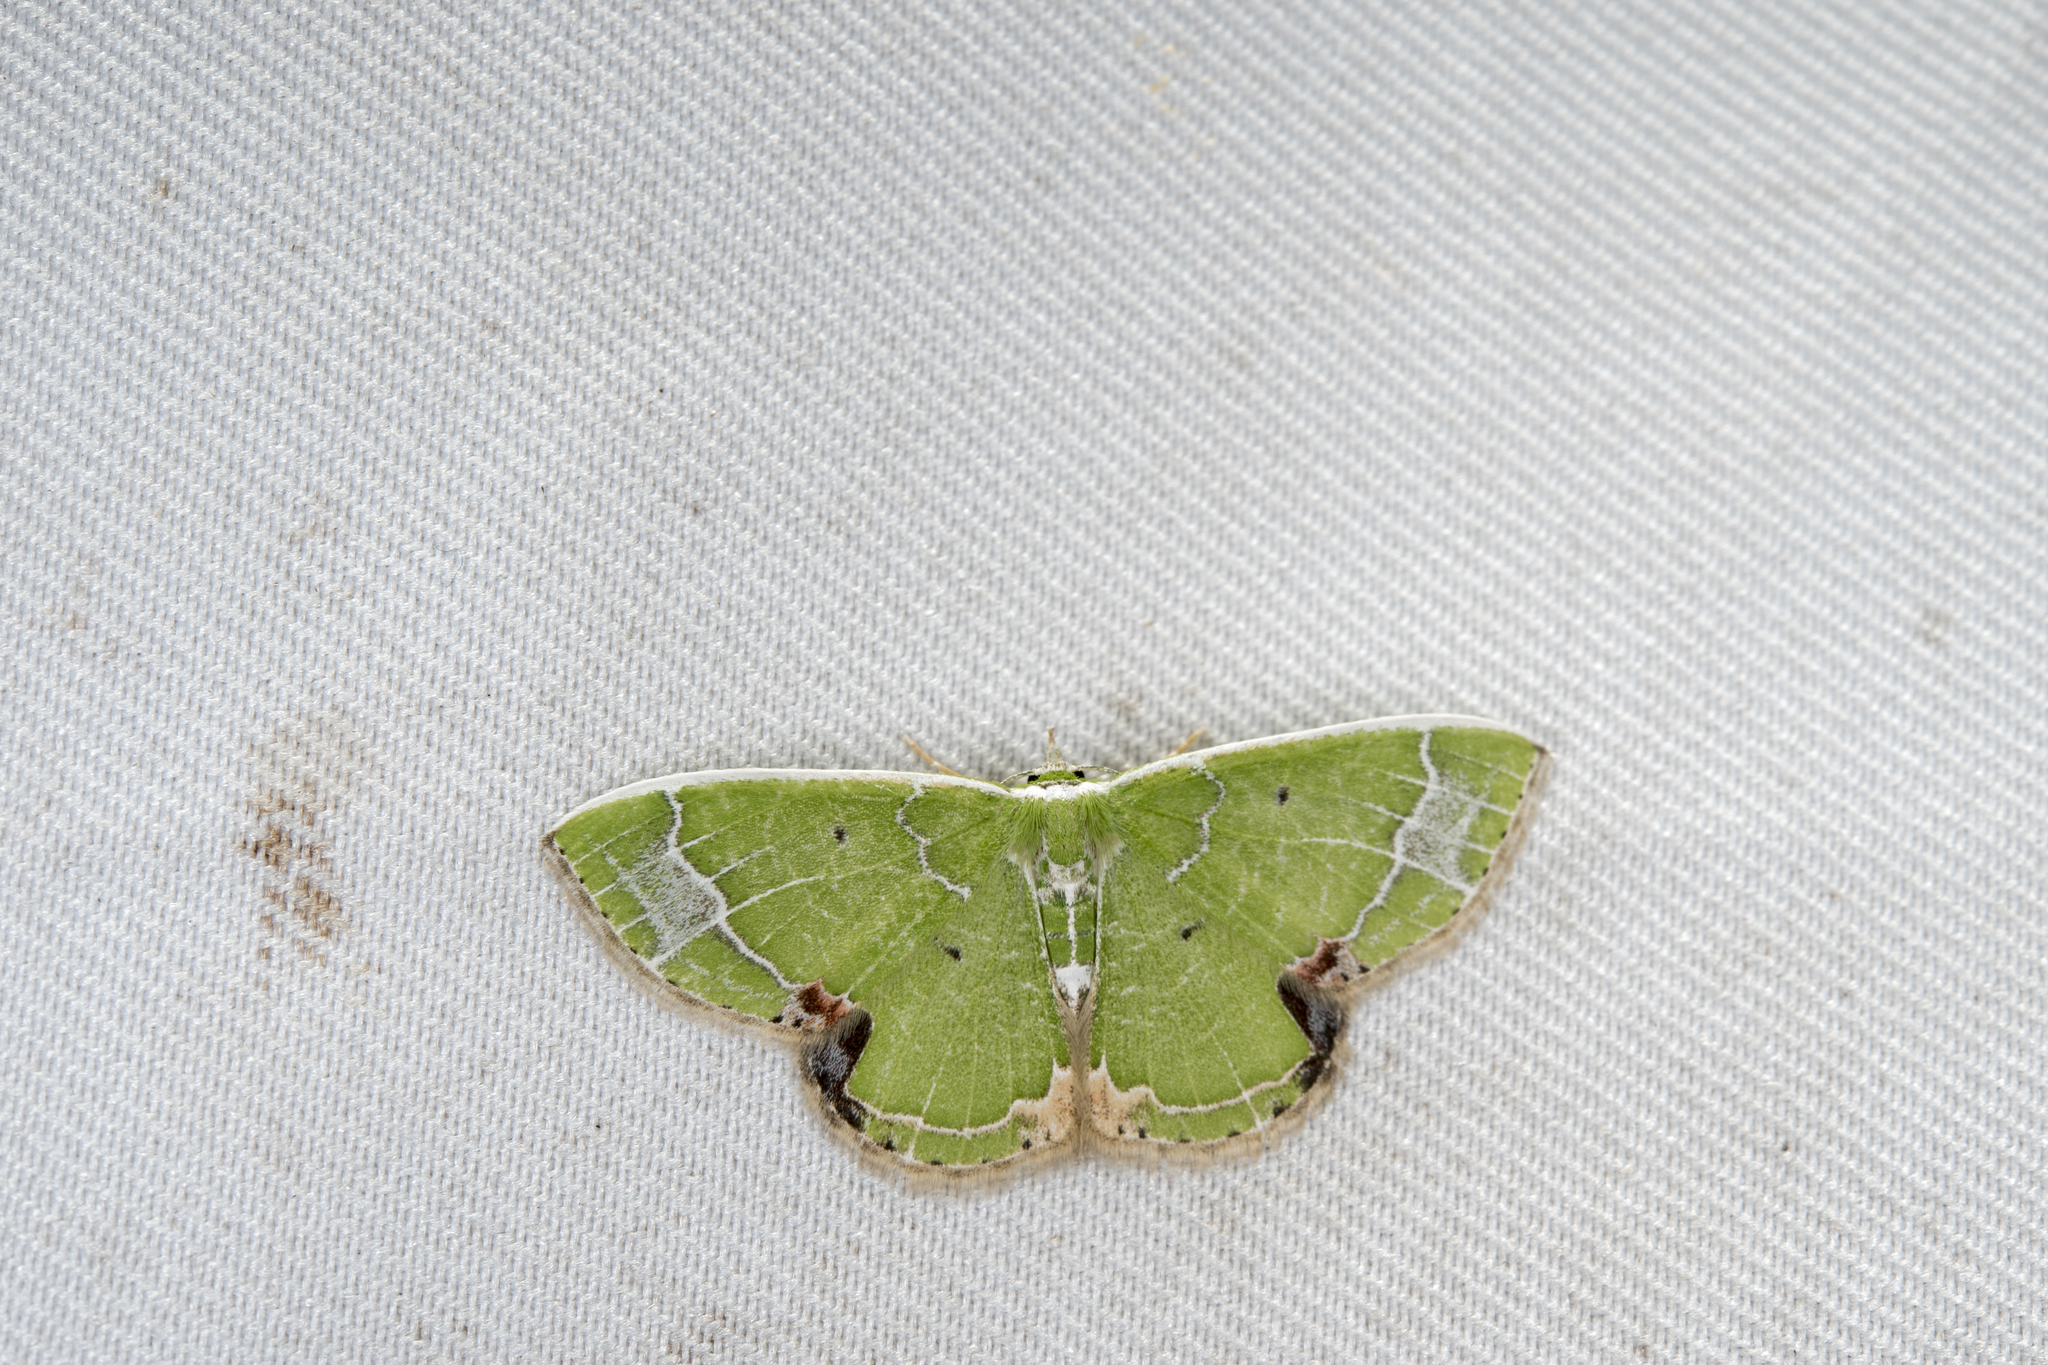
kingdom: Animalia
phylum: Arthropoda
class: Insecta
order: Lepidoptera
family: Geometridae
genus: Comibaena
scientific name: Comibaena subdelicata
